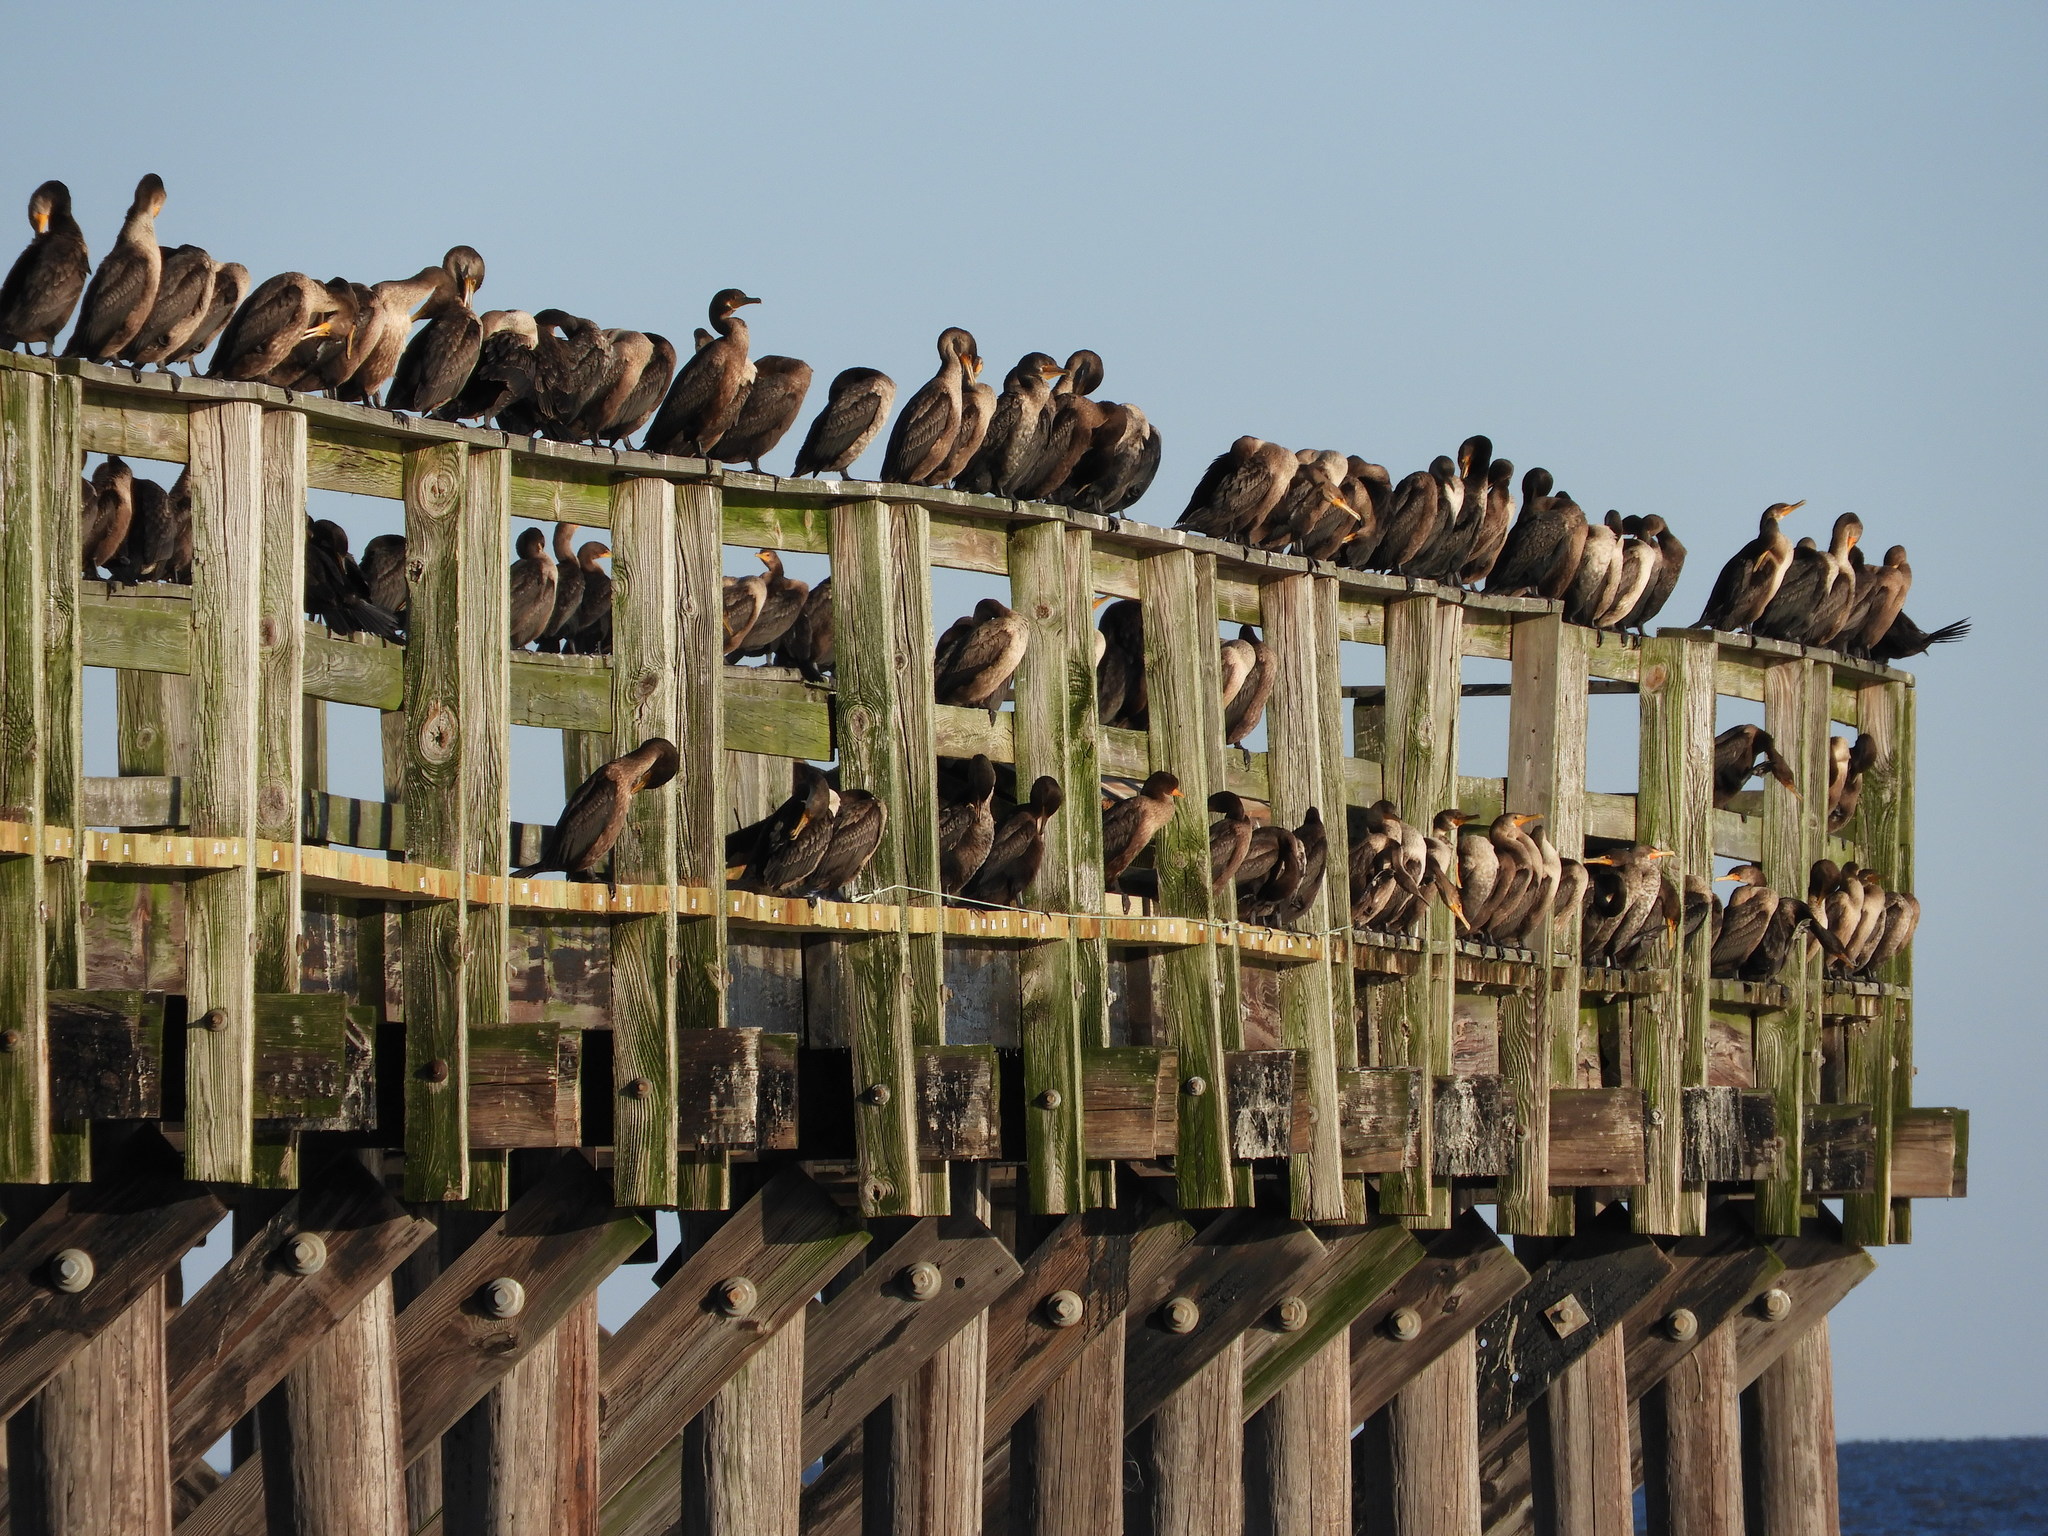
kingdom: Animalia
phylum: Chordata
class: Aves
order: Suliformes
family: Phalacrocoracidae
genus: Phalacrocorax
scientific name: Phalacrocorax auritus
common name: Double-crested cormorant
